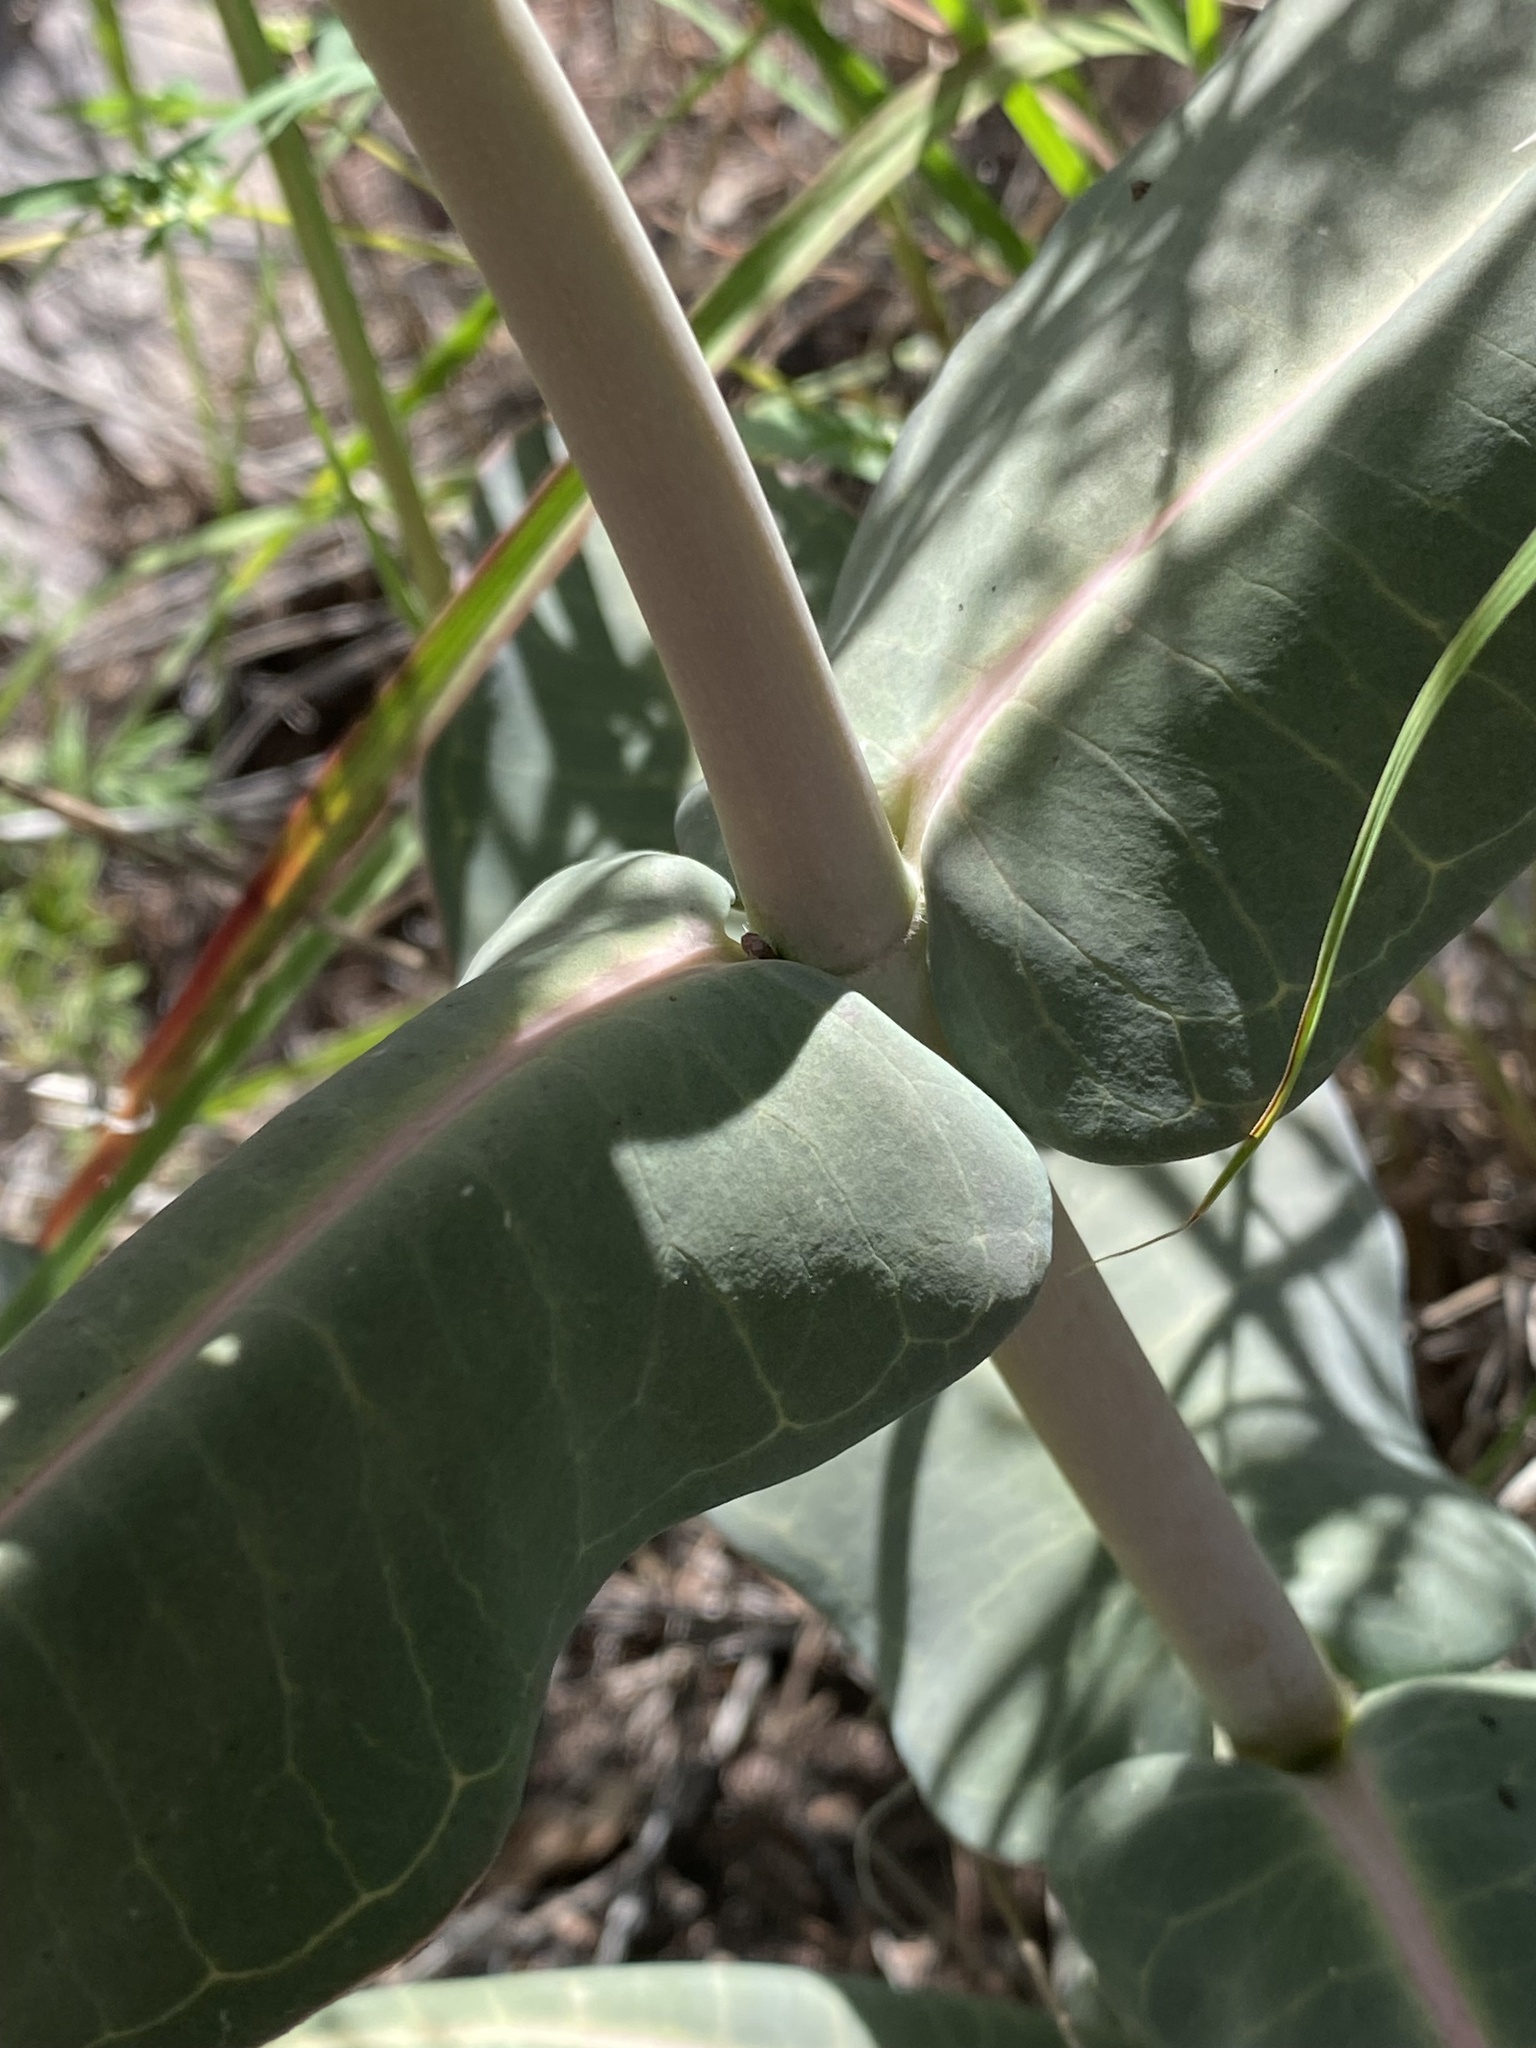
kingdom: Plantae
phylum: Tracheophyta
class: Magnoliopsida
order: Gentianales
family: Apocynaceae
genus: Asclepias
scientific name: Asclepias elata
